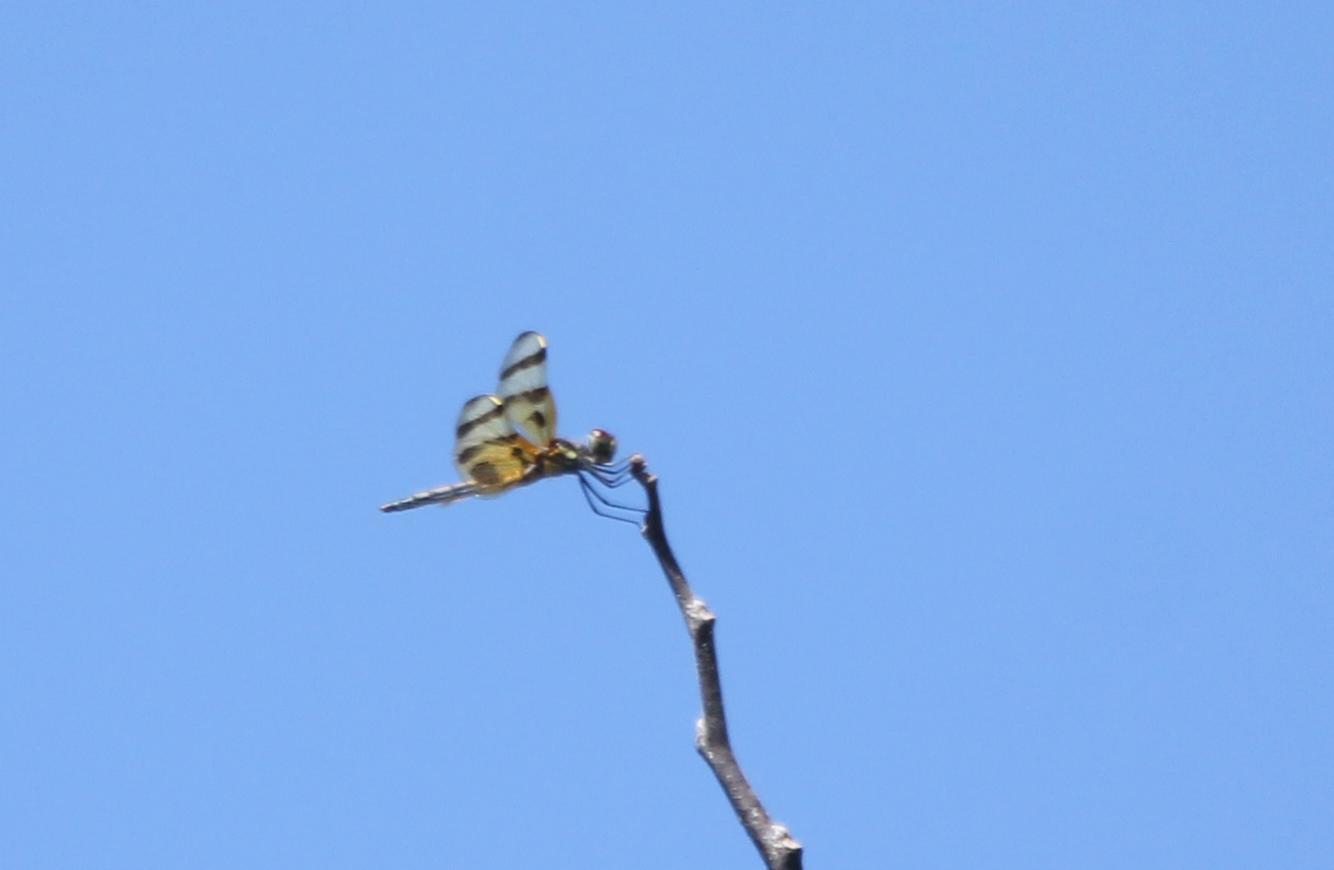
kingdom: Animalia
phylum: Arthropoda
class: Insecta
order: Odonata
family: Libellulidae
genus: Celithemis
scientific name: Celithemis eponina
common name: Halloween pennant
